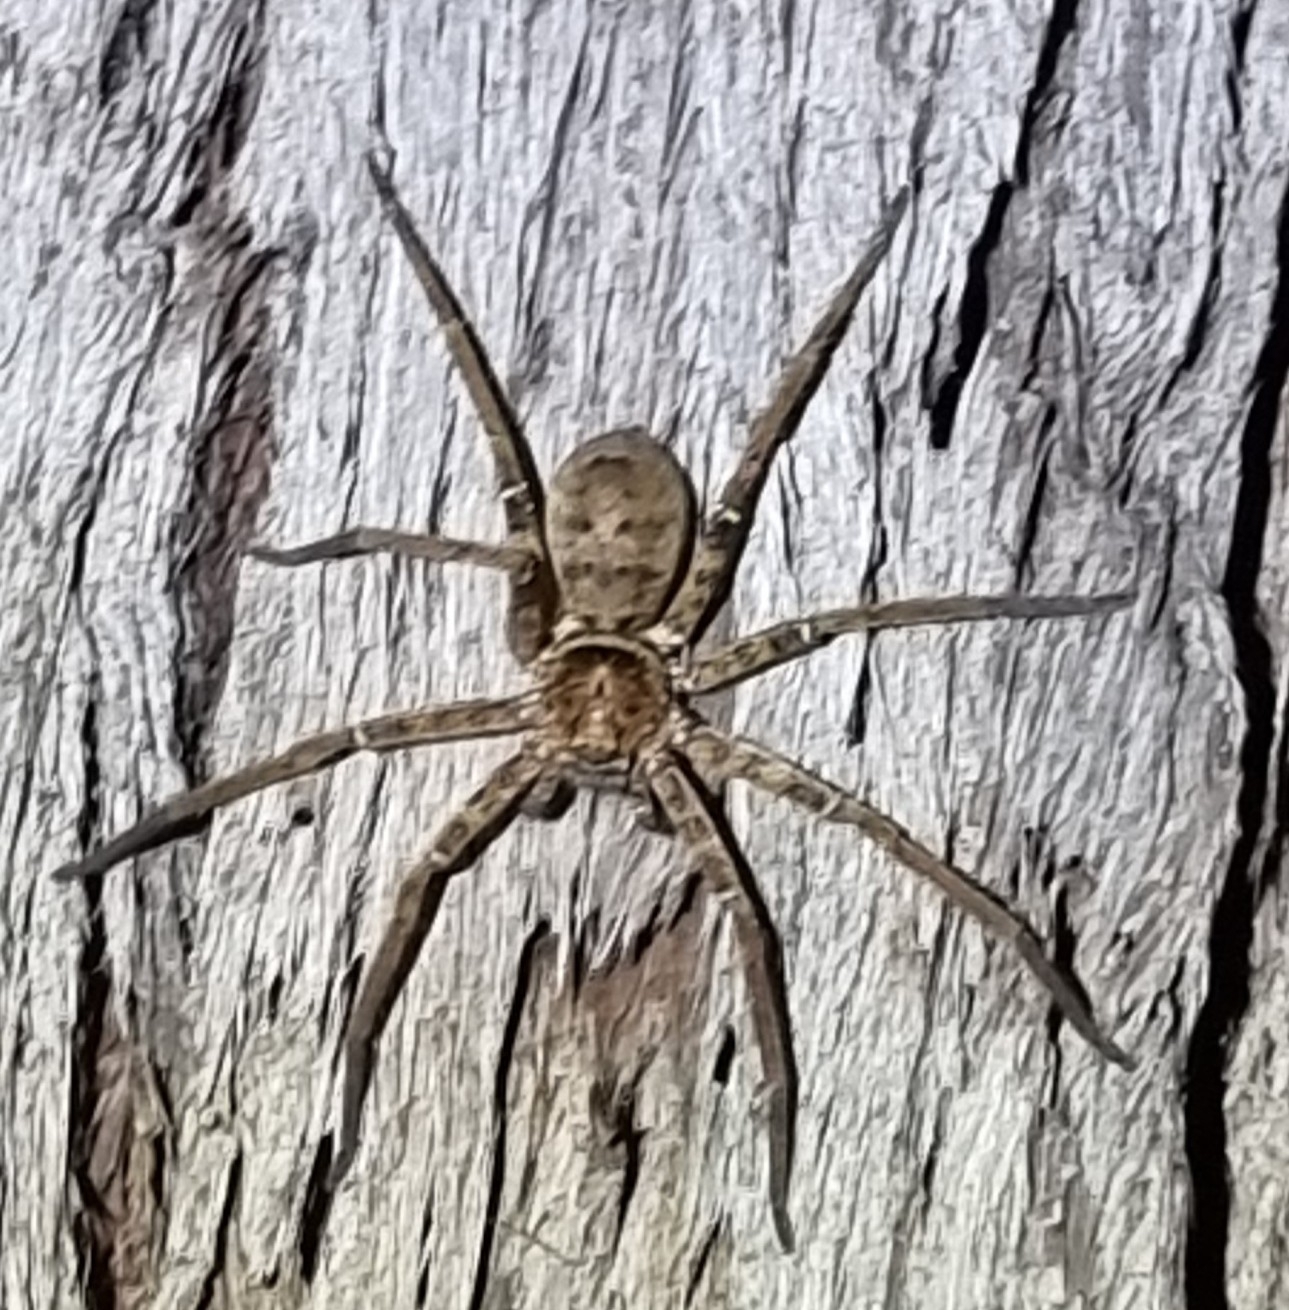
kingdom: Animalia
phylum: Arthropoda
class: Arachnida
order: Araneae
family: Sparassidae
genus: Heteropoda
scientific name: Heteropoda jugulans
